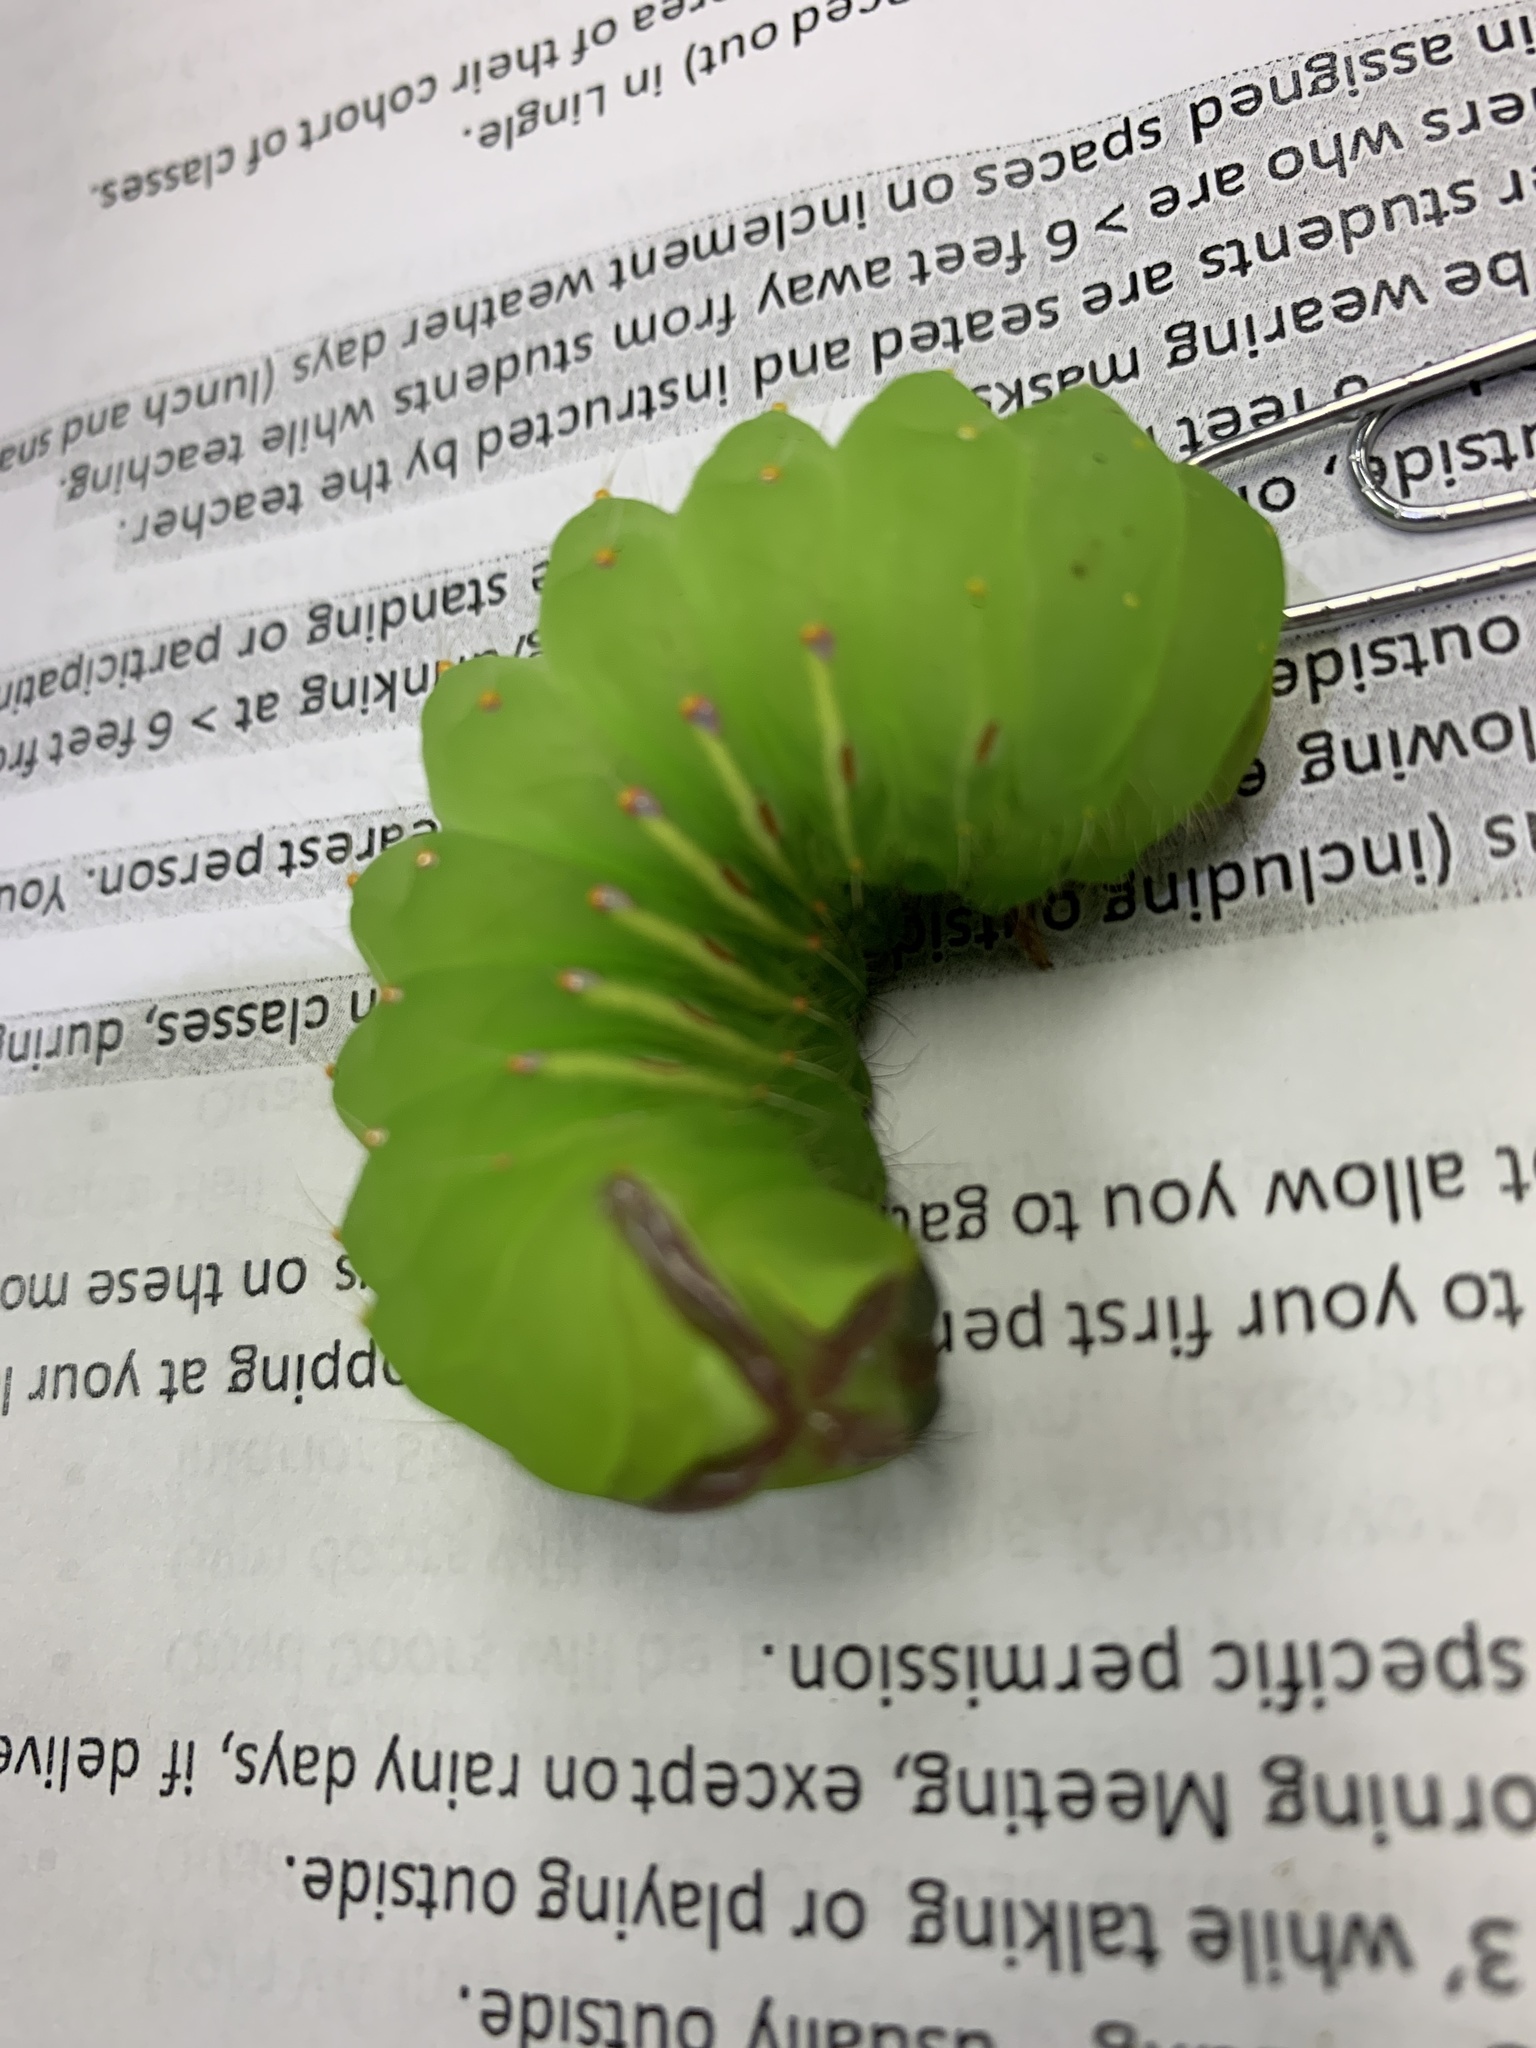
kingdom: Animalia
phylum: Arthropoda
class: Insecta
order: Lepidoptera
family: Saturniidae
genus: Antheraea
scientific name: Antheraea polyphemus
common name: Polyphemus moth
